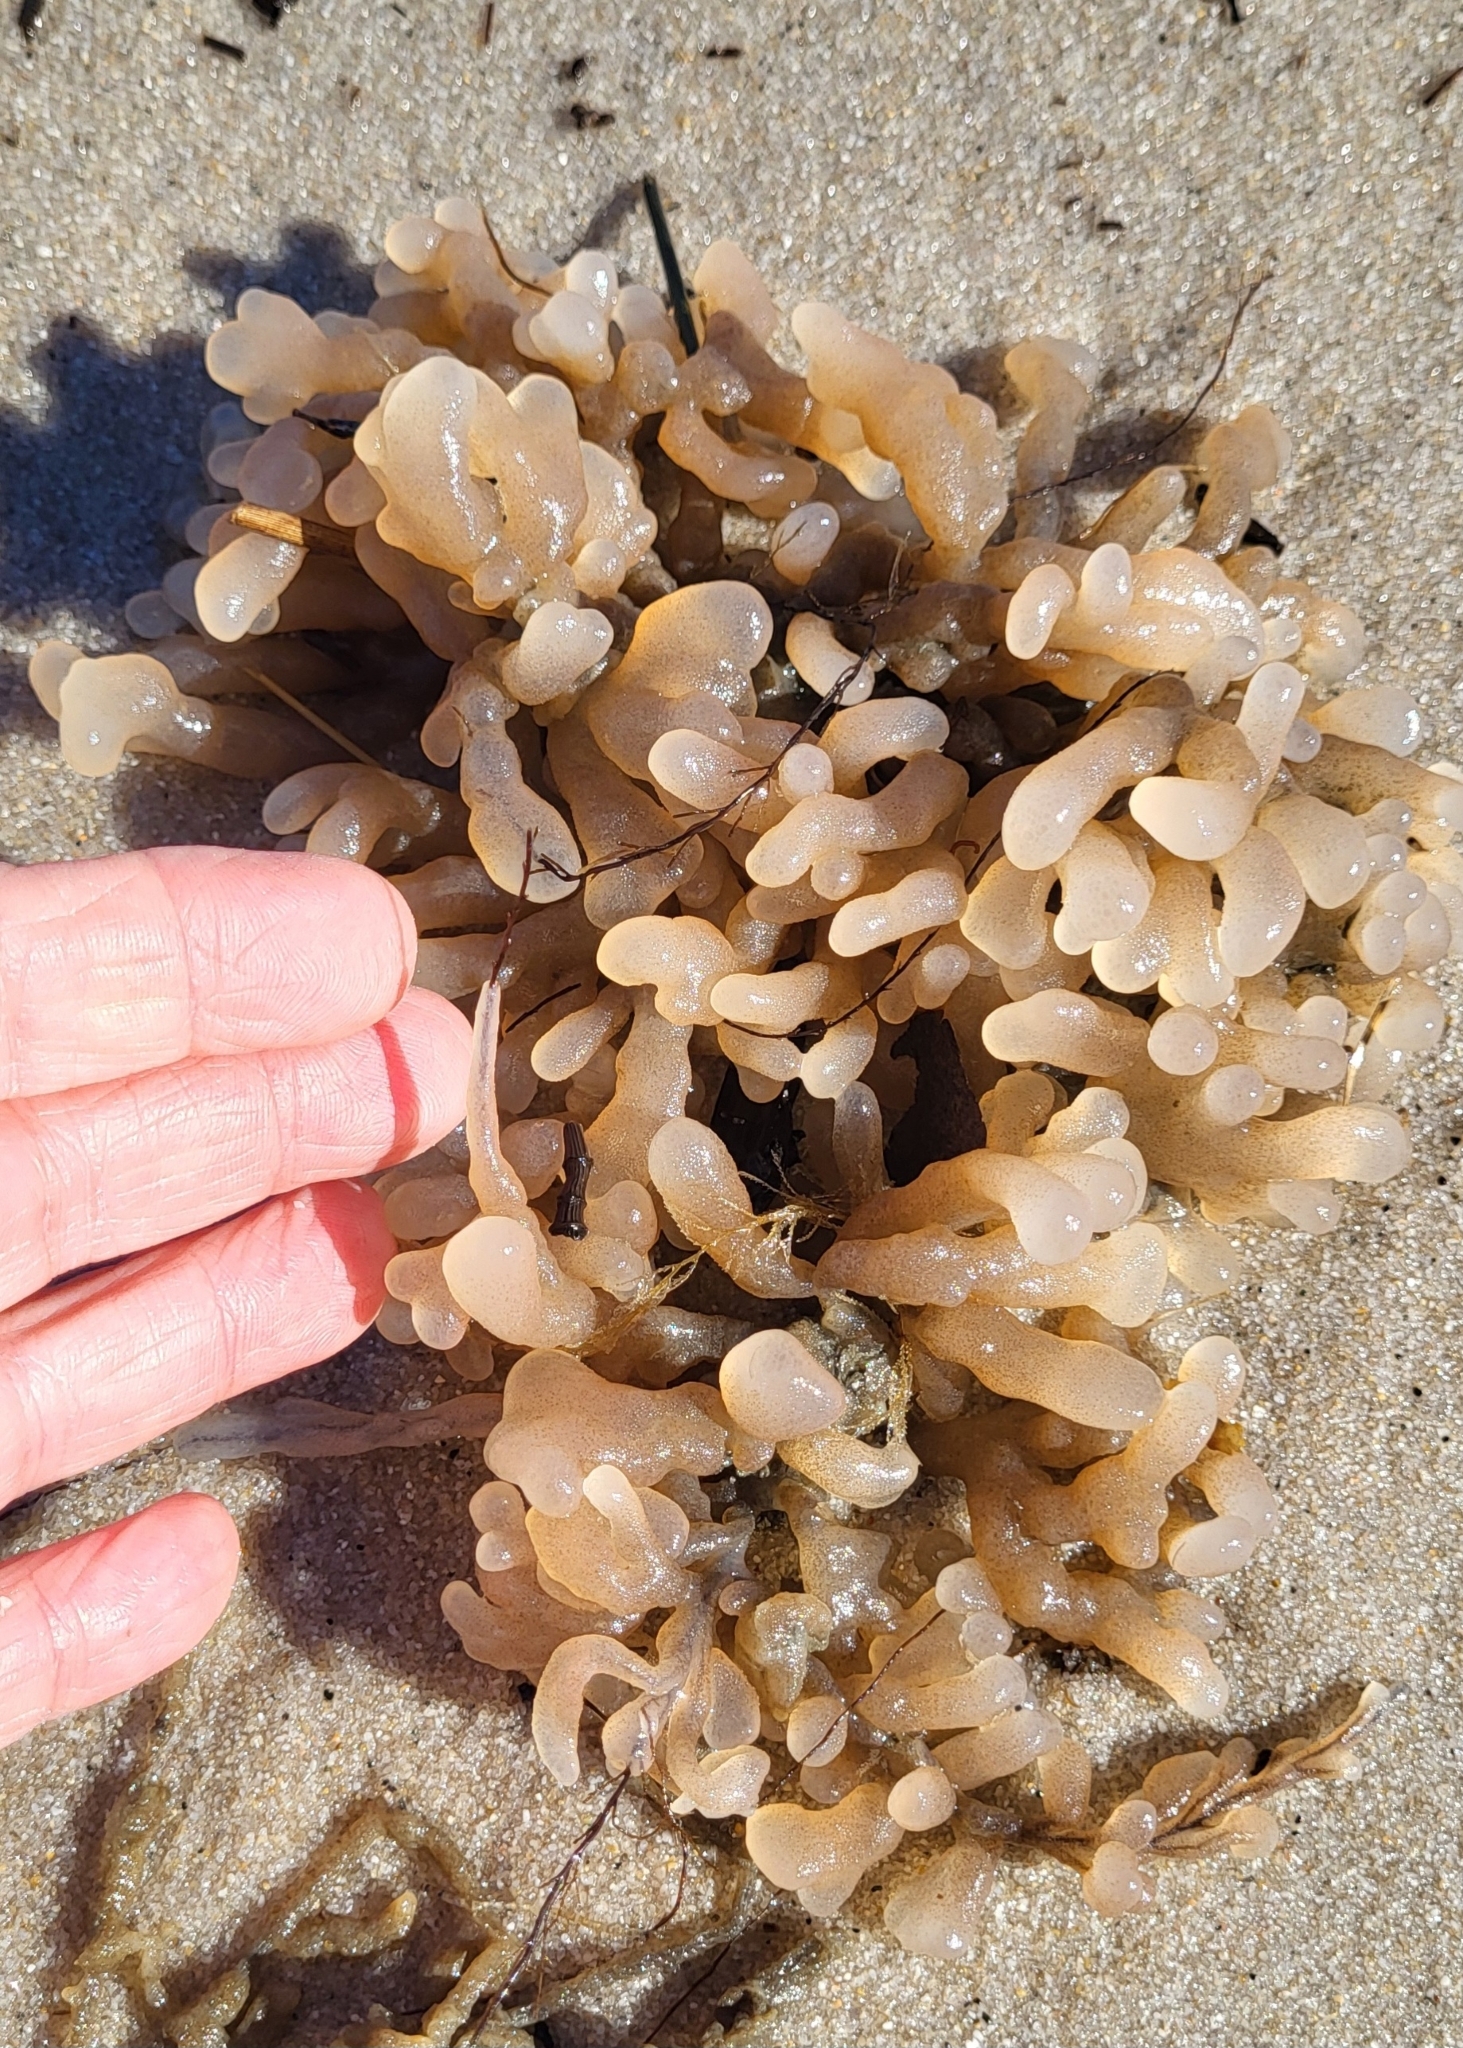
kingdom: Animalia
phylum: Bryozoa
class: Gymnolaemata
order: Ctenostomatida
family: Alcyonidiidae
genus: Alcyonidium
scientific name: Alcyonidium hauffi
